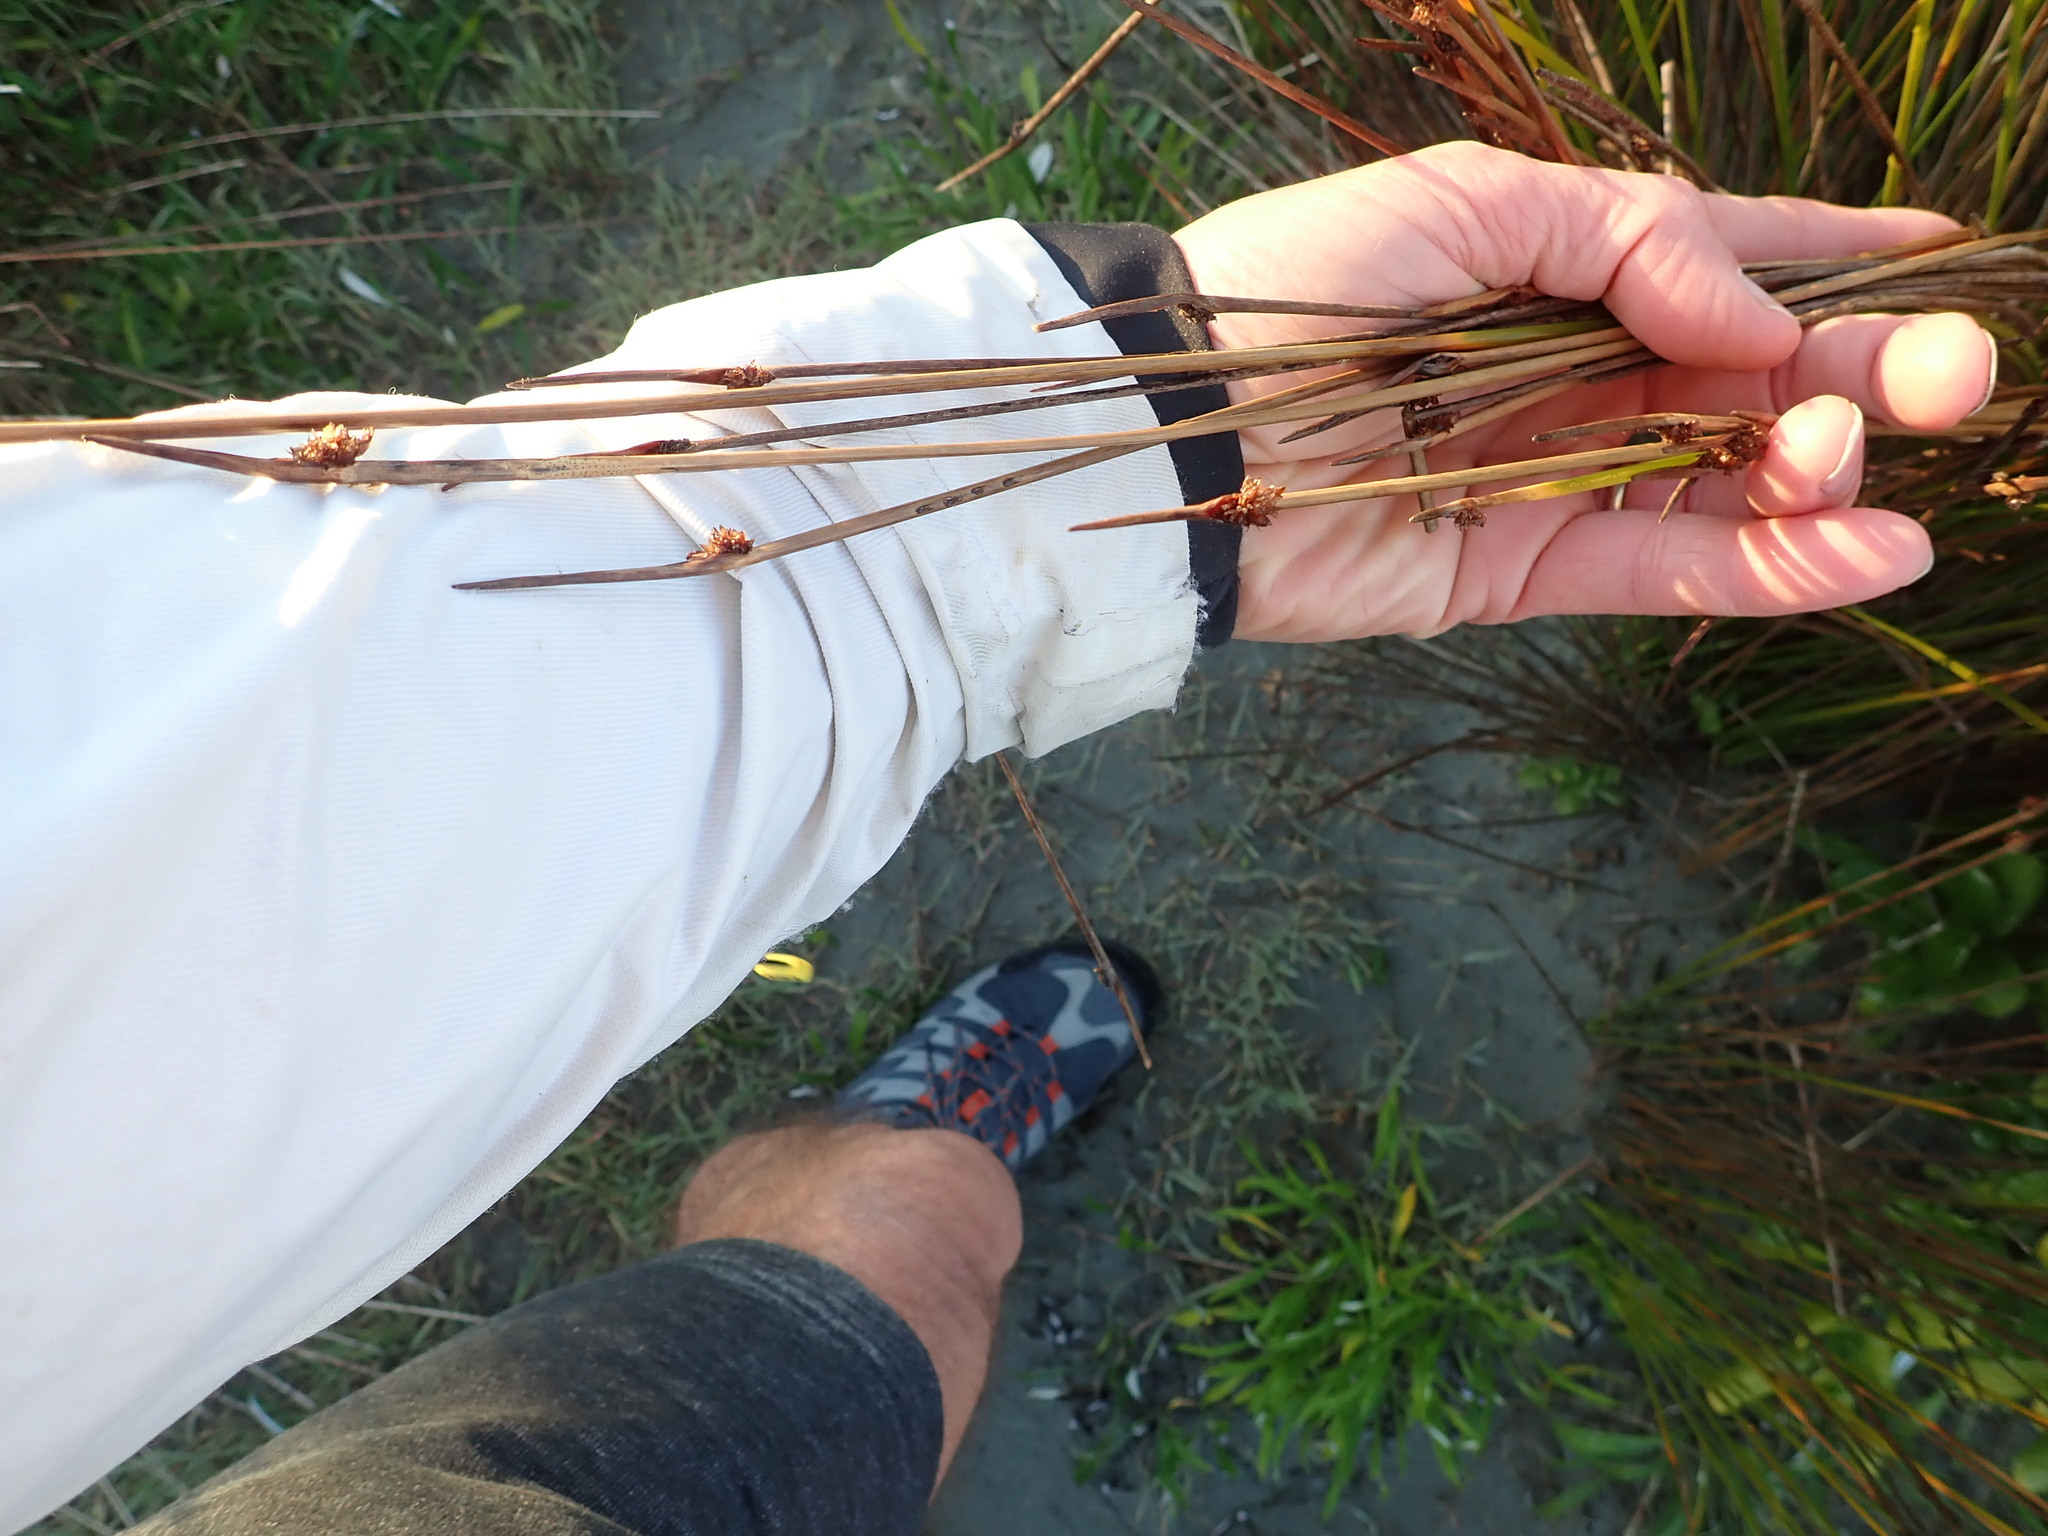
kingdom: Plantae
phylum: Tracheophyta
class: Liliopsida
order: Poales
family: Cyperaceae
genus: Ficinia
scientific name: Ficinia nodosa
